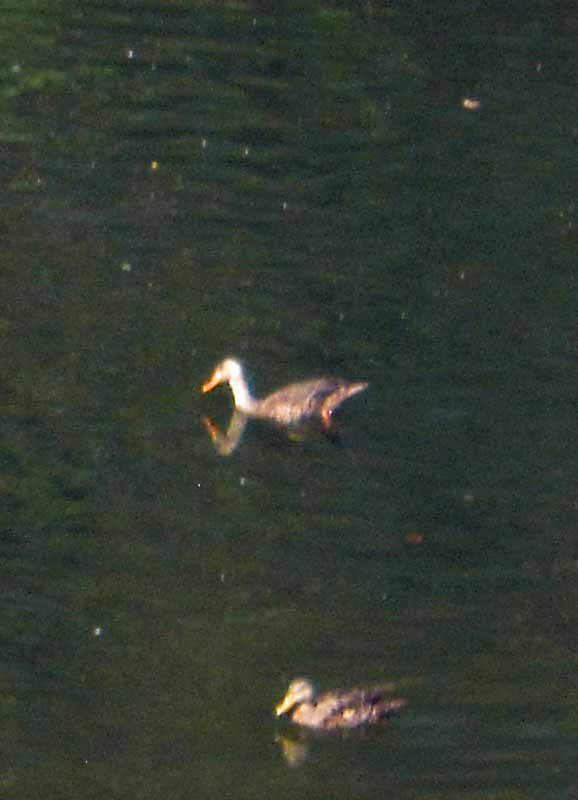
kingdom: Animalia
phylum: Chordata
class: Aves
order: Anseriformes
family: Anatidae
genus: Anas
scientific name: Anas diazi
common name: Mexican duck
